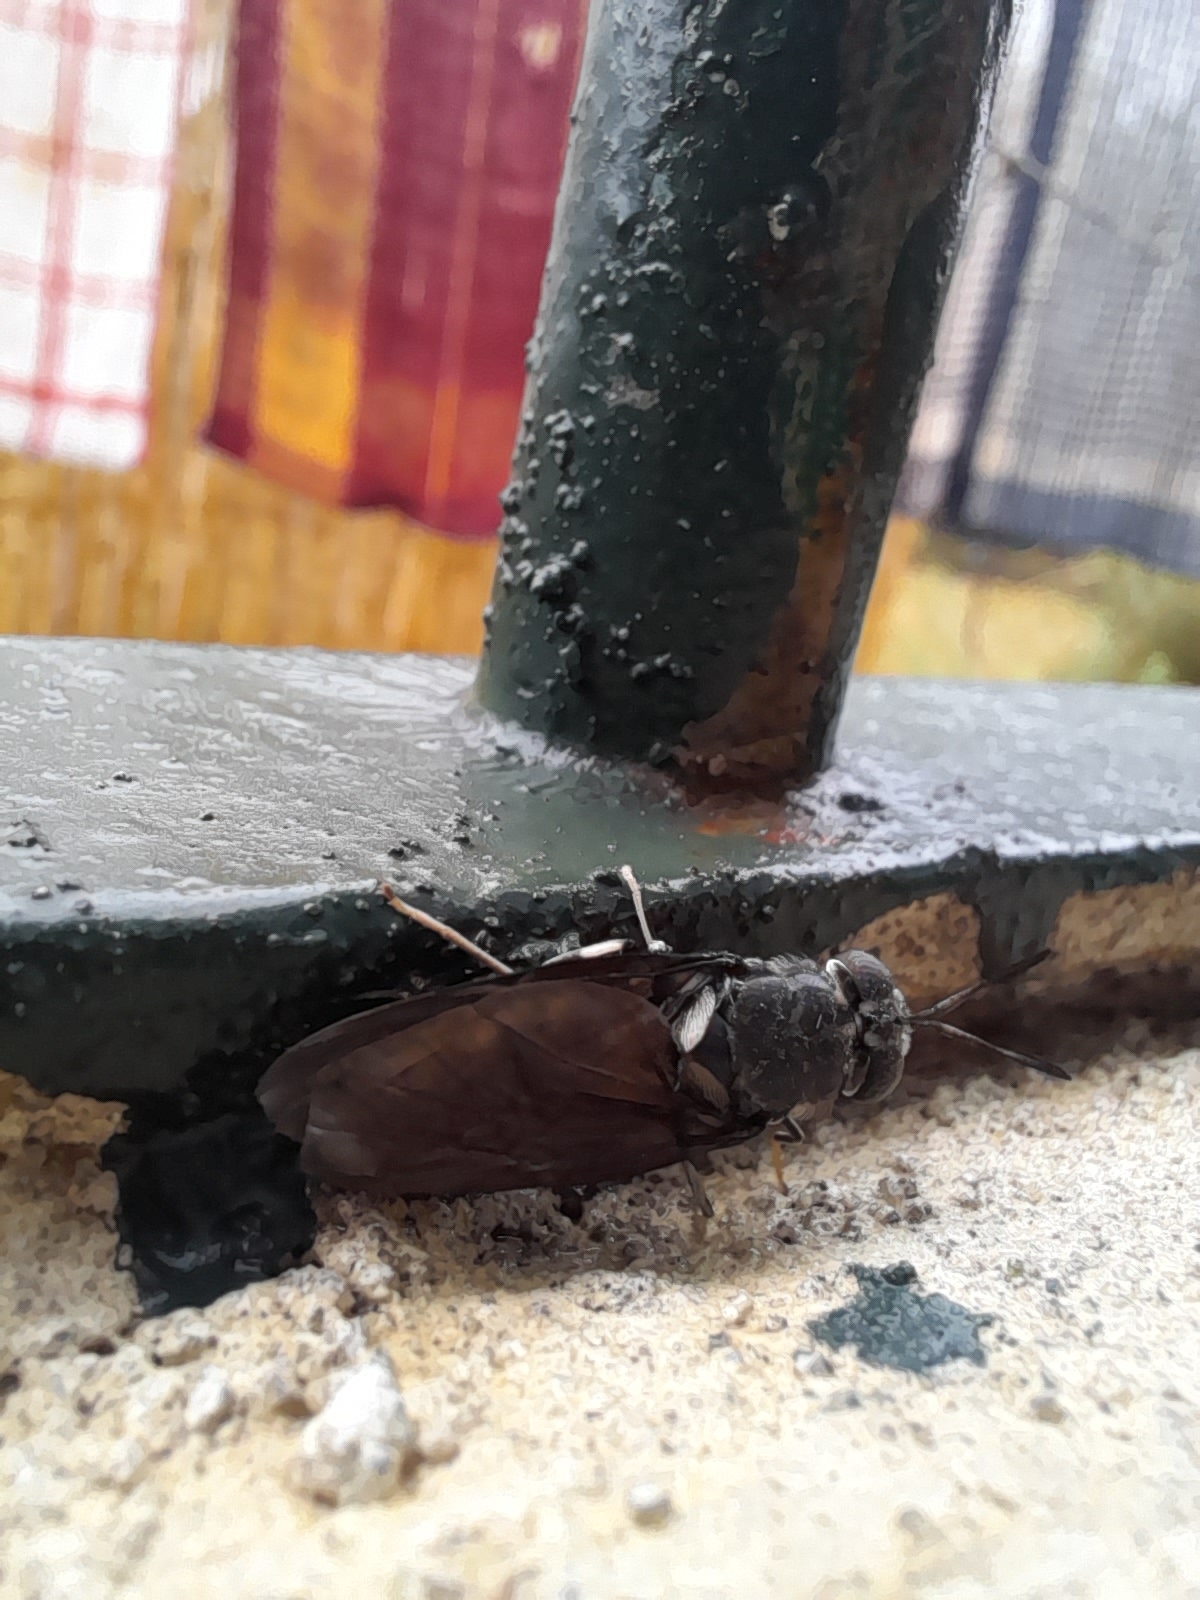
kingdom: Animalia
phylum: Arthropoda
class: Insecta
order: Diptera
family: Stratiomyidae
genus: Hermetia
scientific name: Hermetia illucens
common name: Black soldier fly
